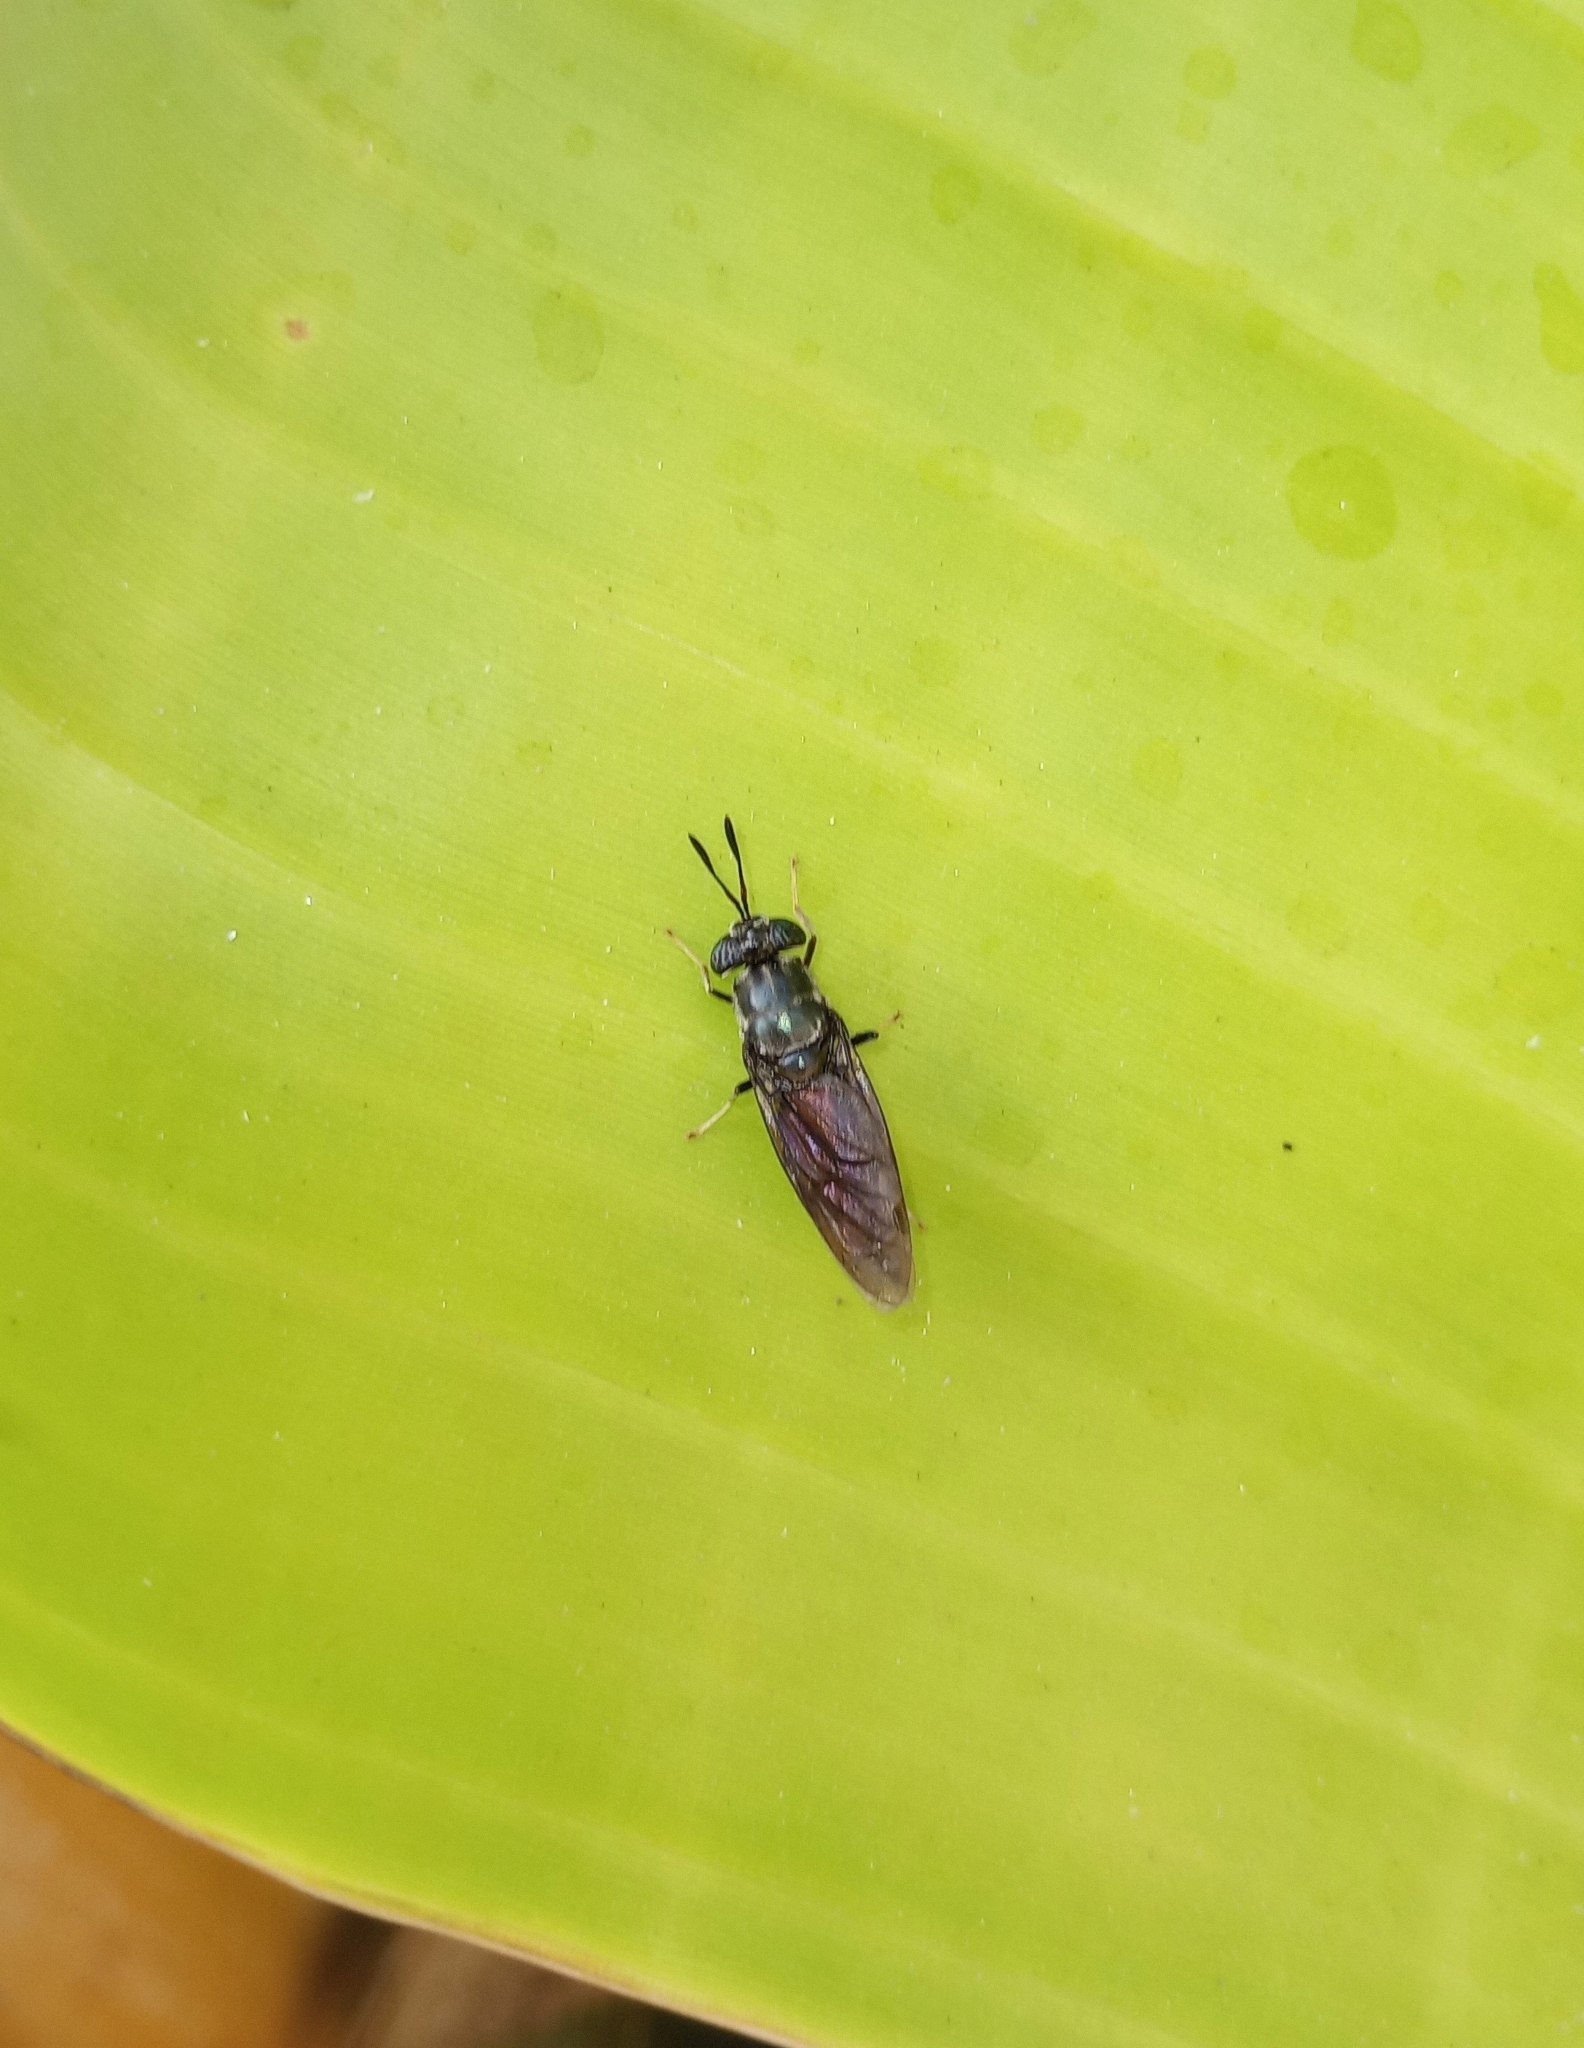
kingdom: Animalia
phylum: Arthropoda
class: Insecta
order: Diptera
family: Stratiomyidae
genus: Hermetia
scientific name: Hermetia illucens
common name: Black soldier fly
